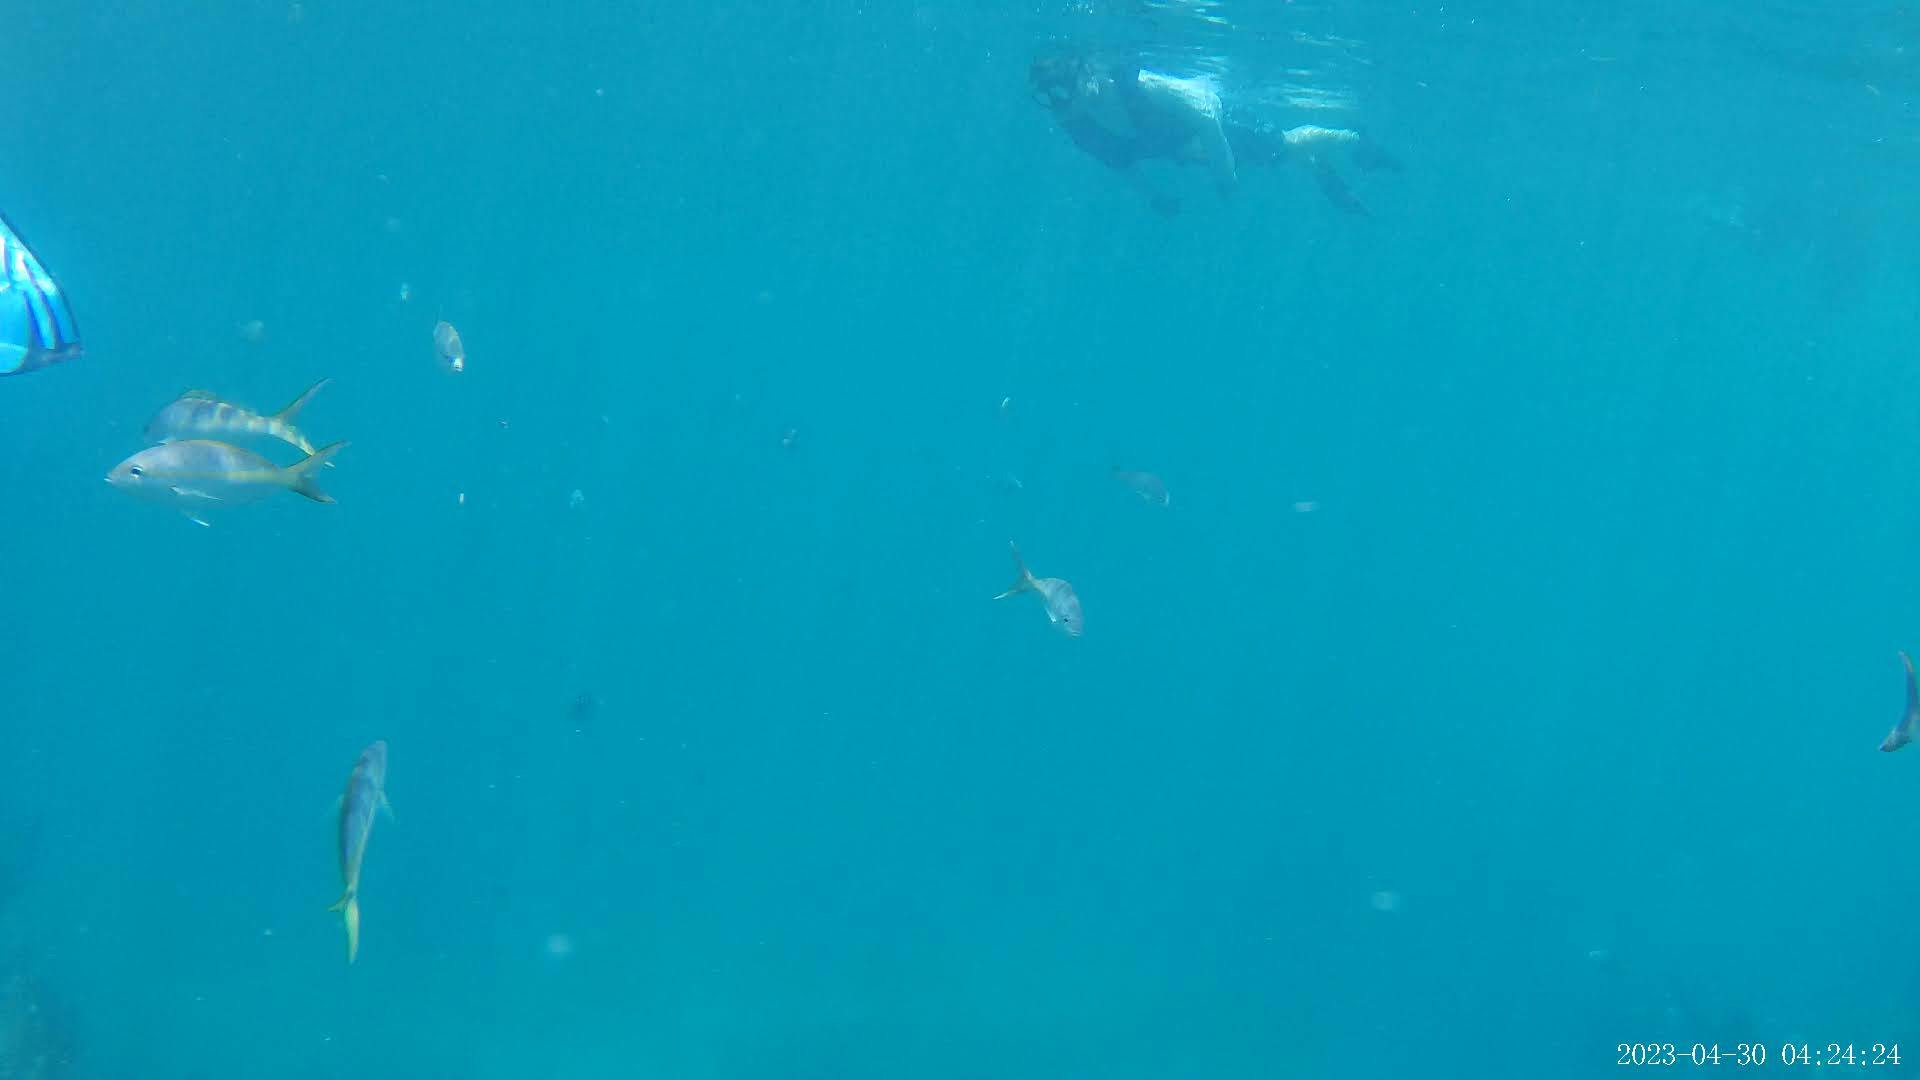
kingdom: Animalia
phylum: Chordata
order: Perciformes
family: Lutjanidae
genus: Ocyurus
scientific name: Ocyurus chrysurus
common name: Yellowtail snapper
